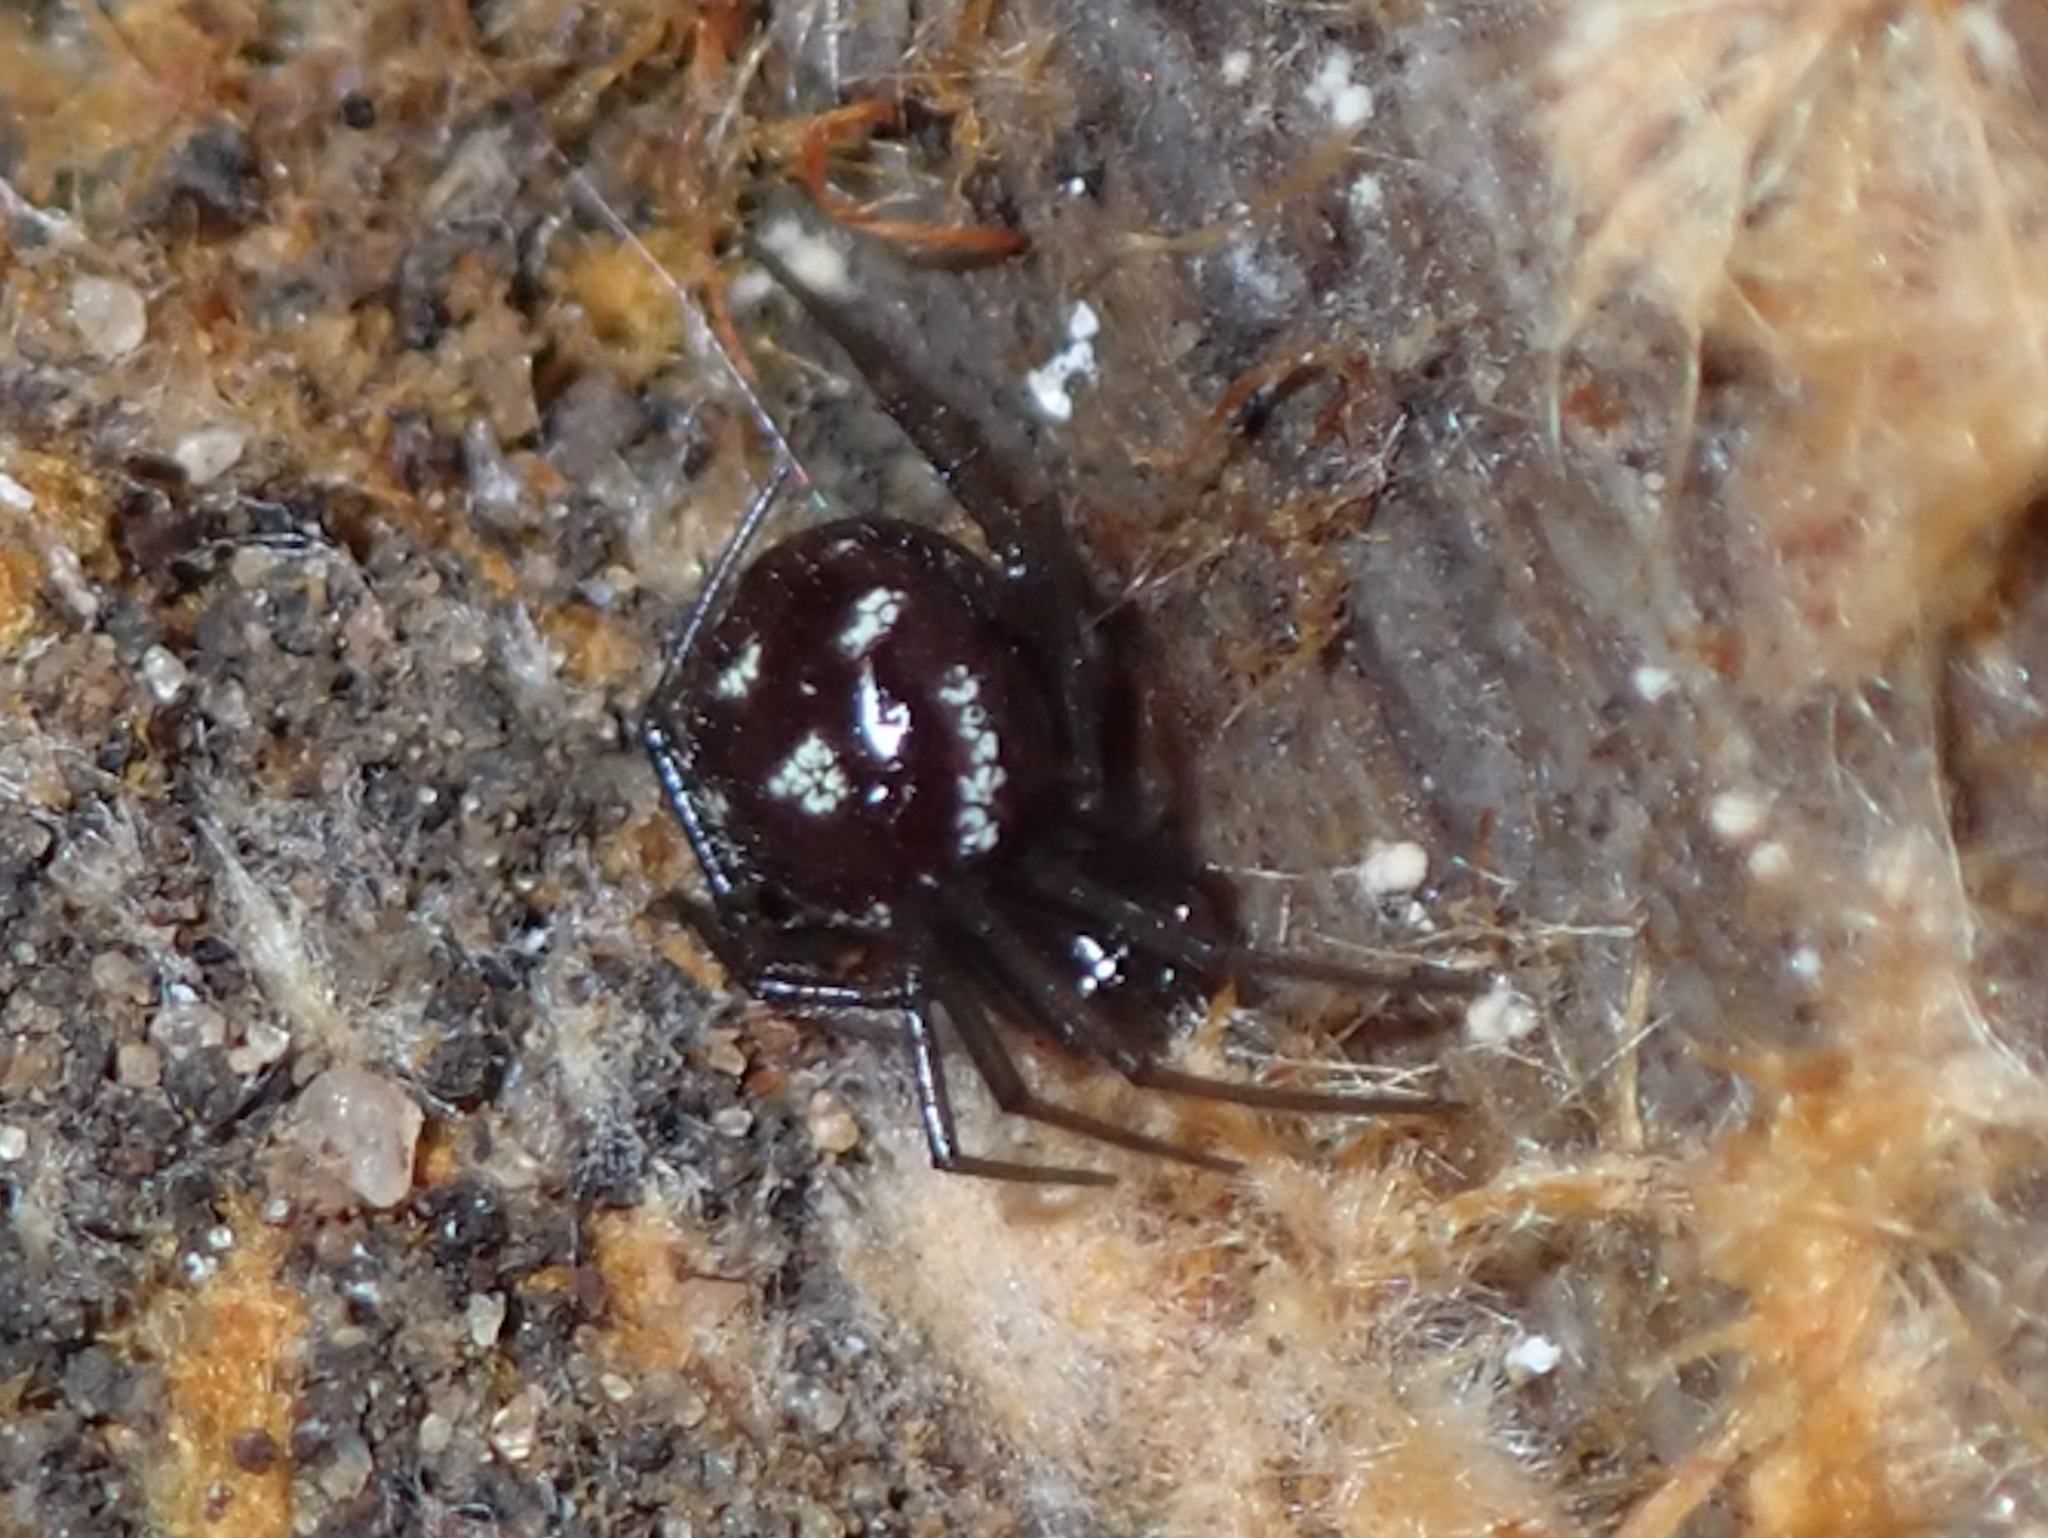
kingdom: Animalia
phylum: Arthropoda
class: Arachnida
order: Araneae
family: Theridiidae
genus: Steatoda
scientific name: Steatoda grossa
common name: False black widow
